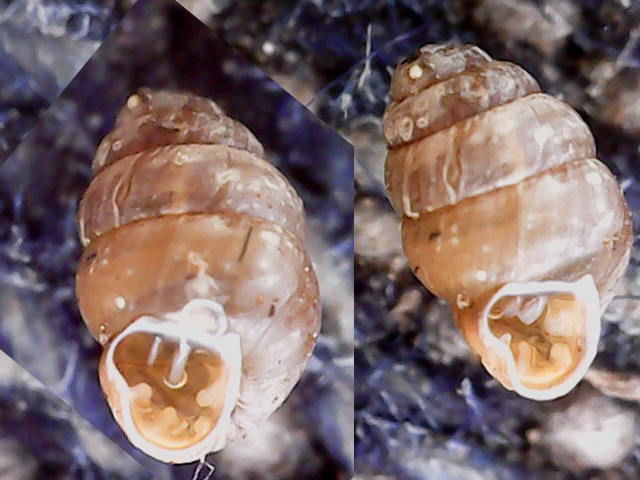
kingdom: Animalia
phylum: Mollusca
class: Gastropoda
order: Stylommatophora
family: Vertiginidae
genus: Vertigo
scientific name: Vertigo pusilla
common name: Wall whorl snail
